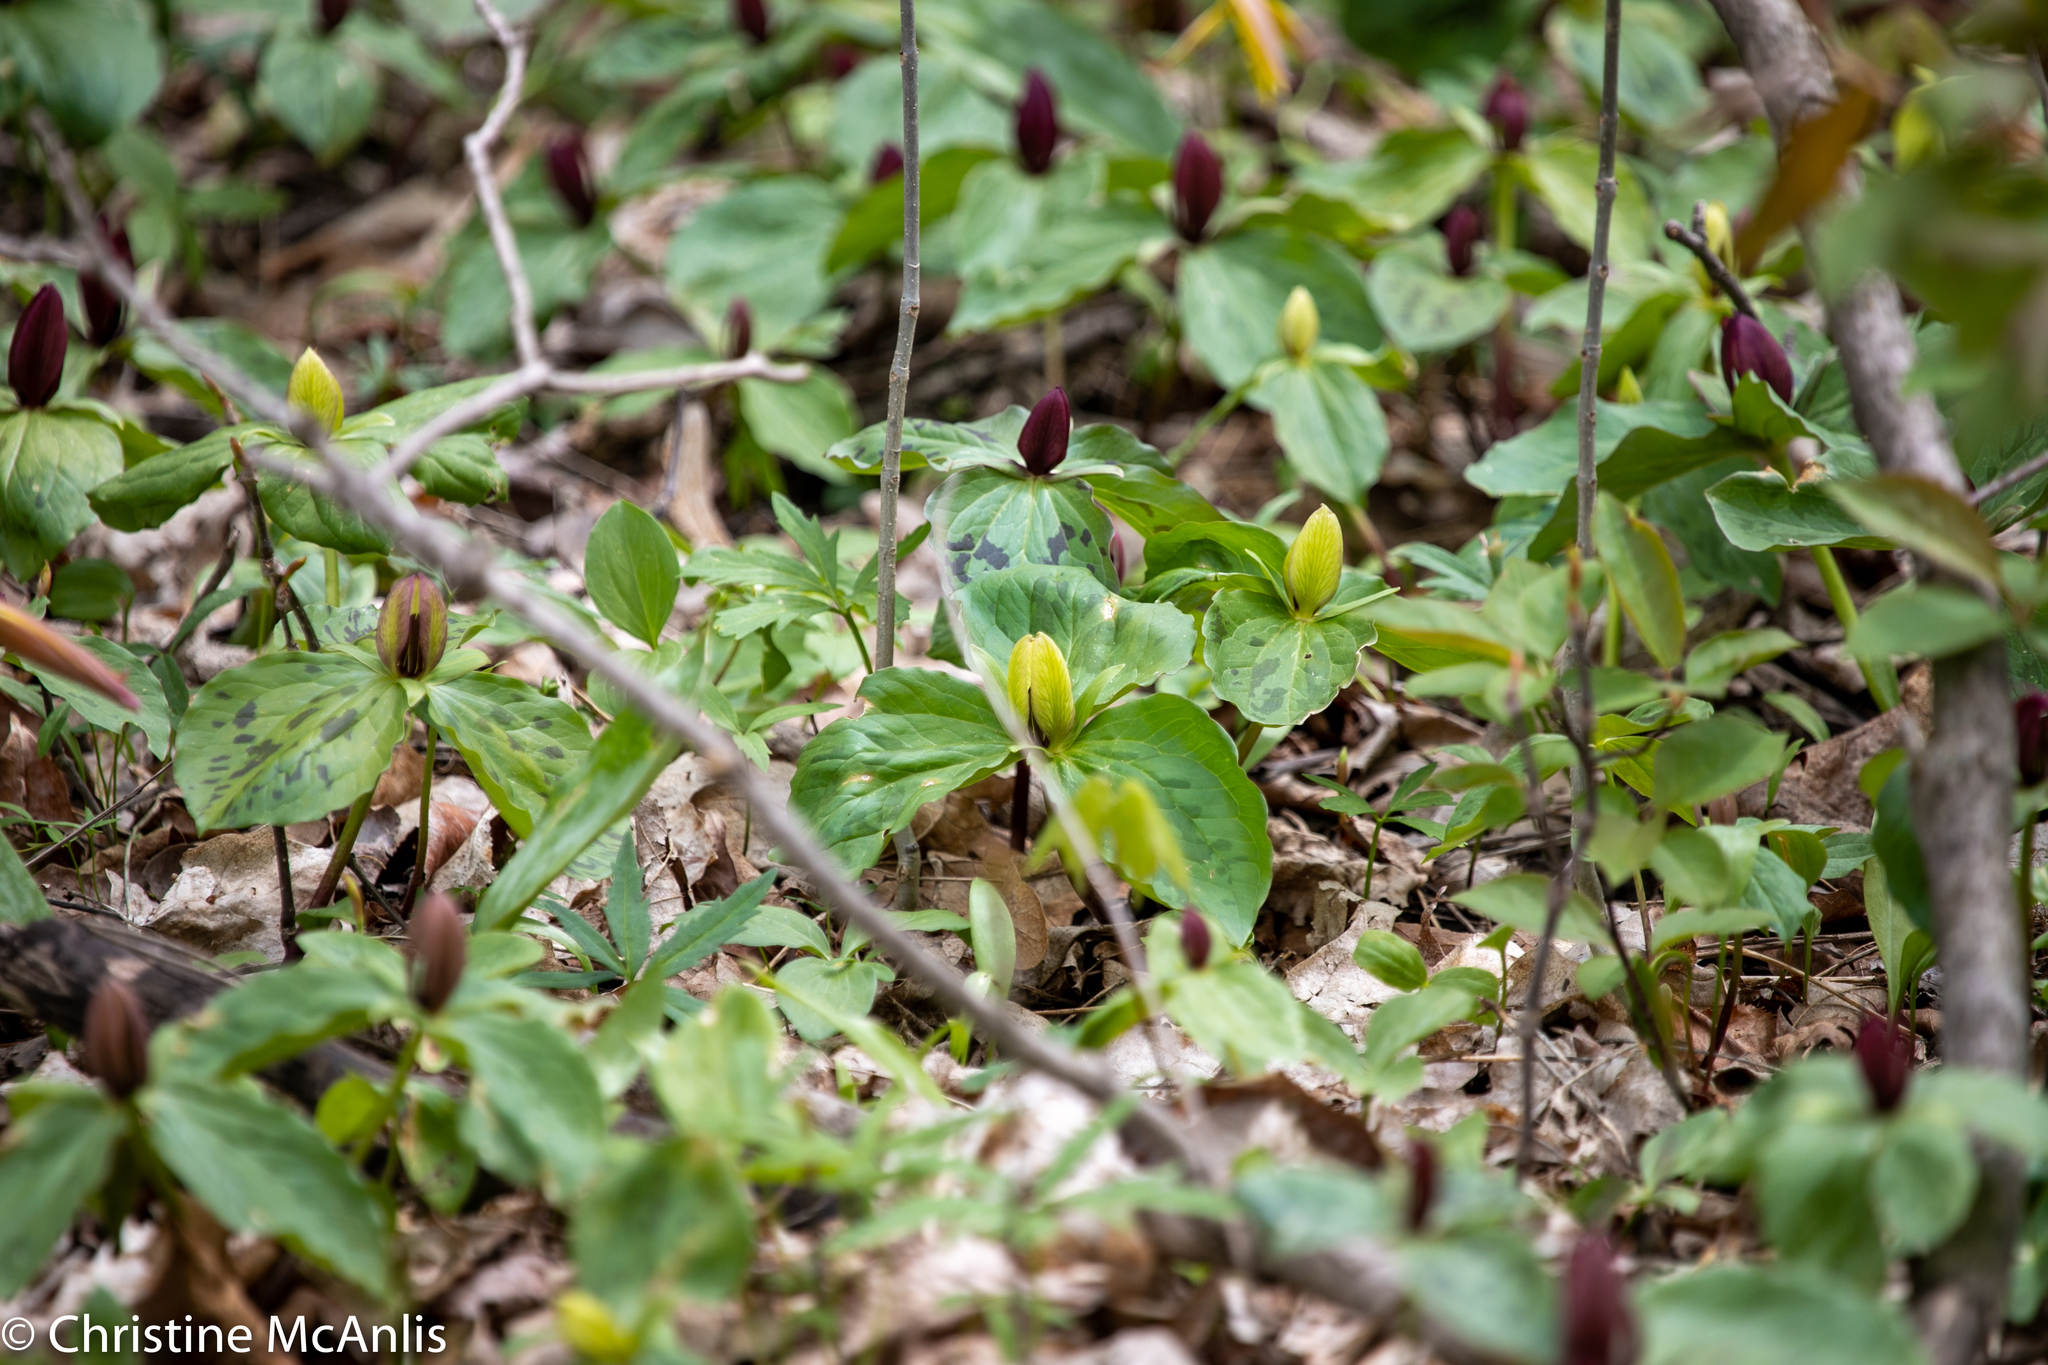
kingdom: Plantae
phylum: Tracheophyta
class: Liliopsida
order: Liliales
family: Melanthiaceae
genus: Trillium
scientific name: Trillium sessile
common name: Sessile trillium
